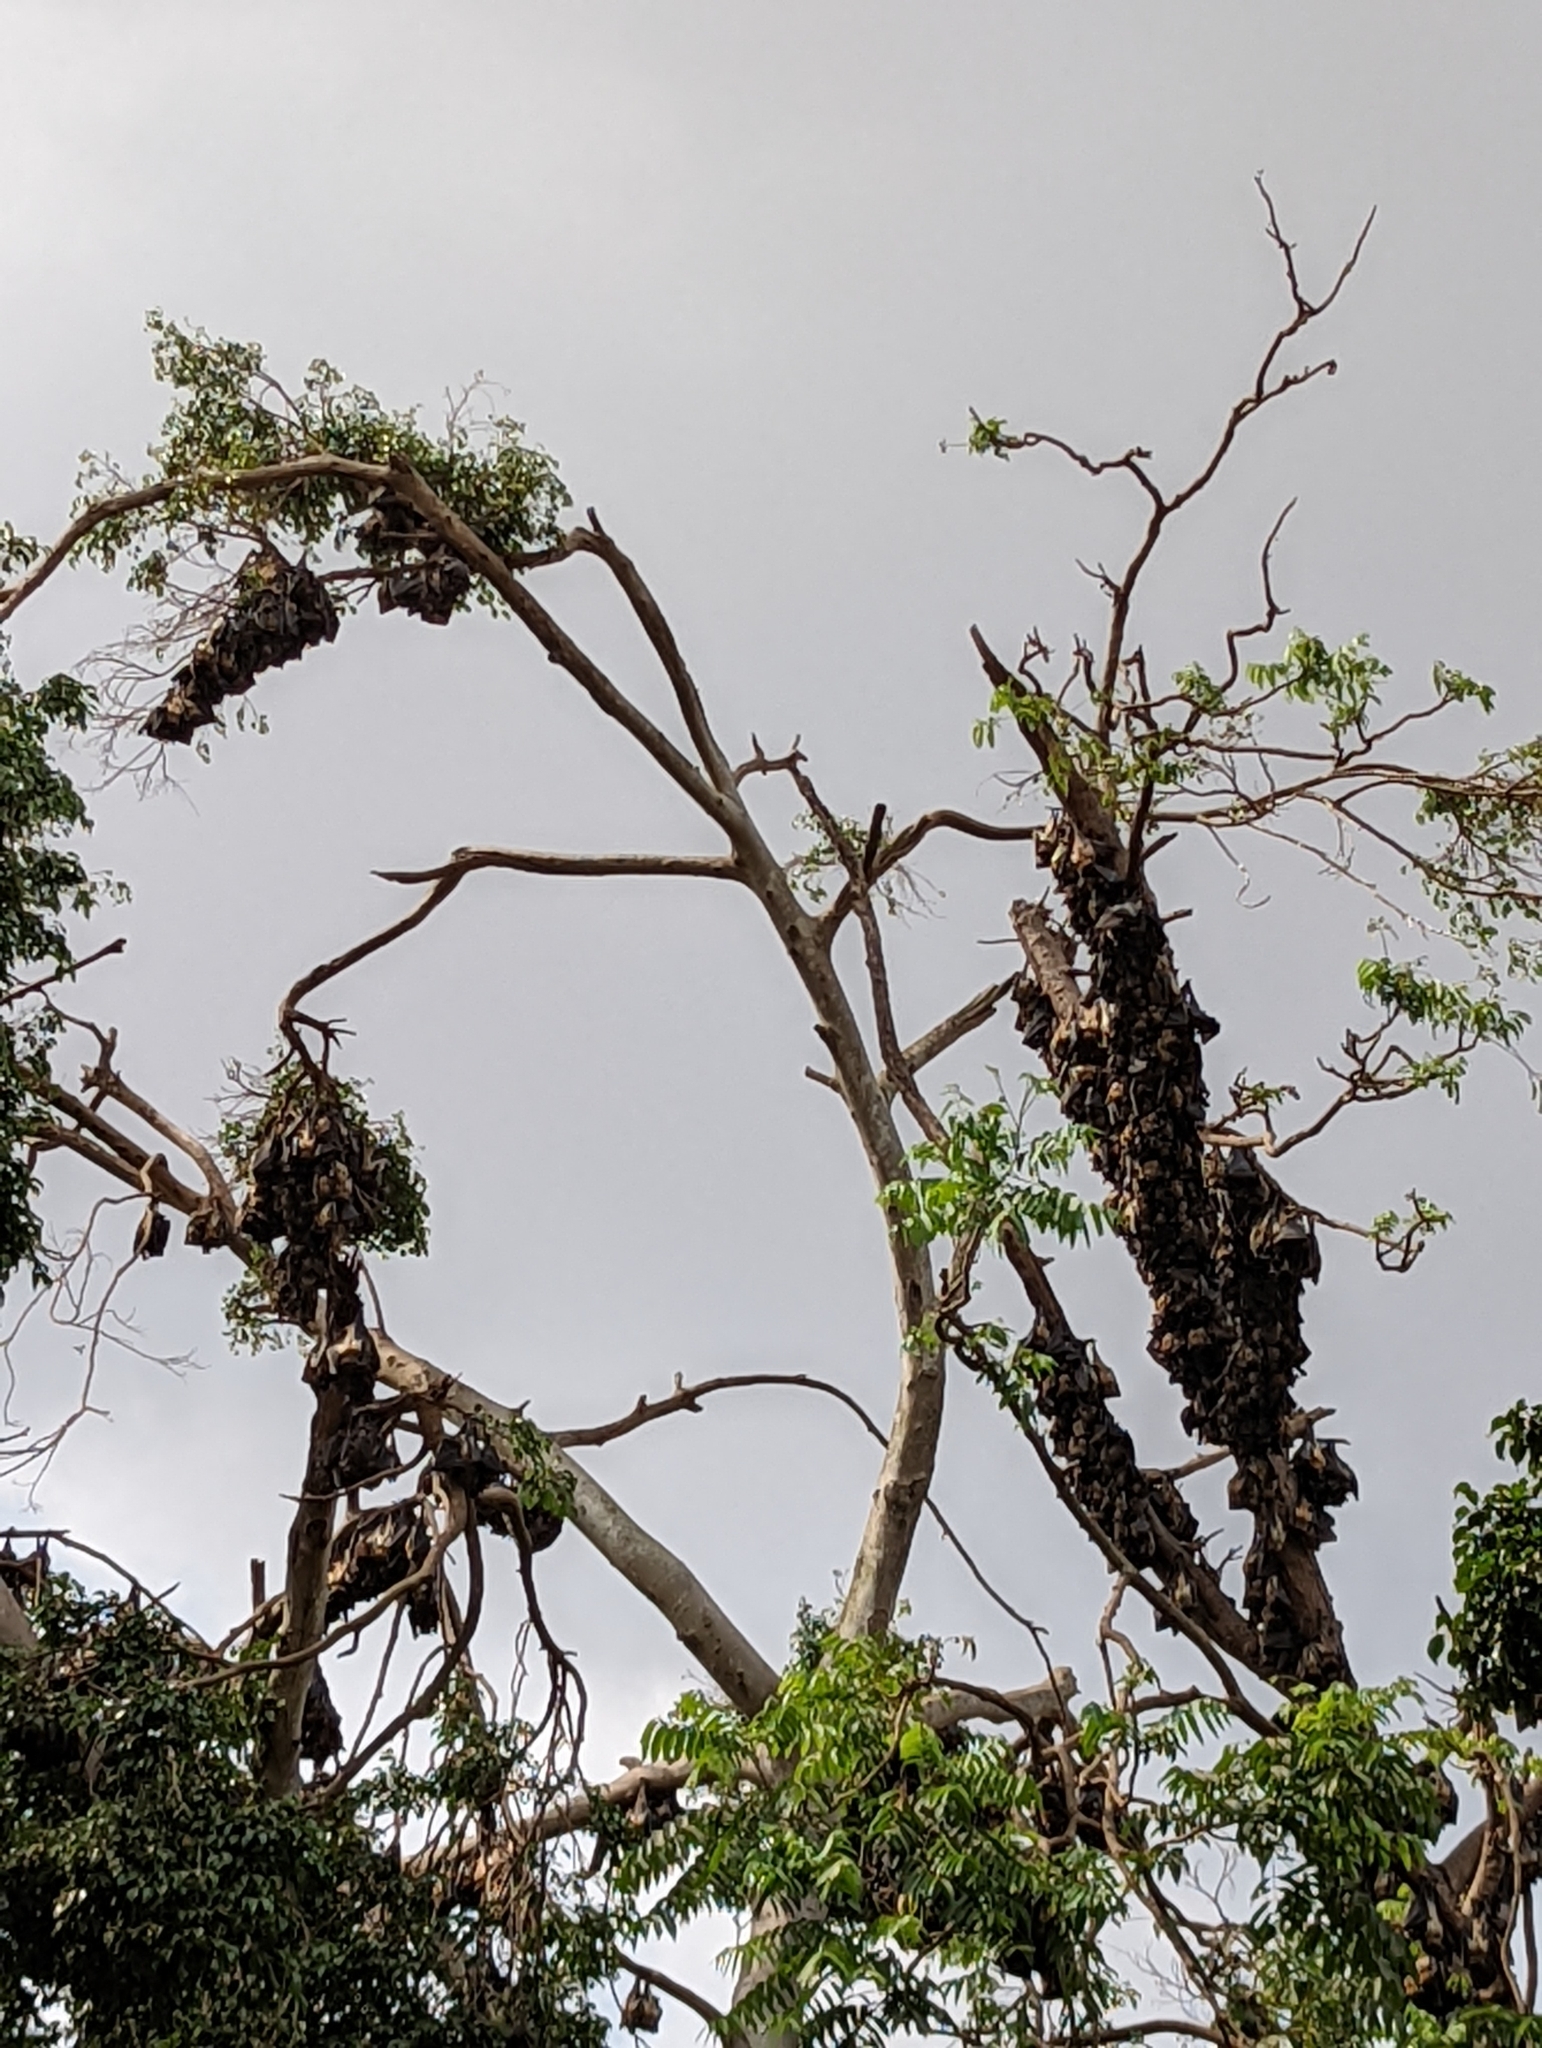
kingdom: Animalia
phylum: Chordata
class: Mammalia
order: Chiroptera
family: Pteropodidae
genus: Eidolon
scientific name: Eidolon helvum
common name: Straw-colored fruit bat
